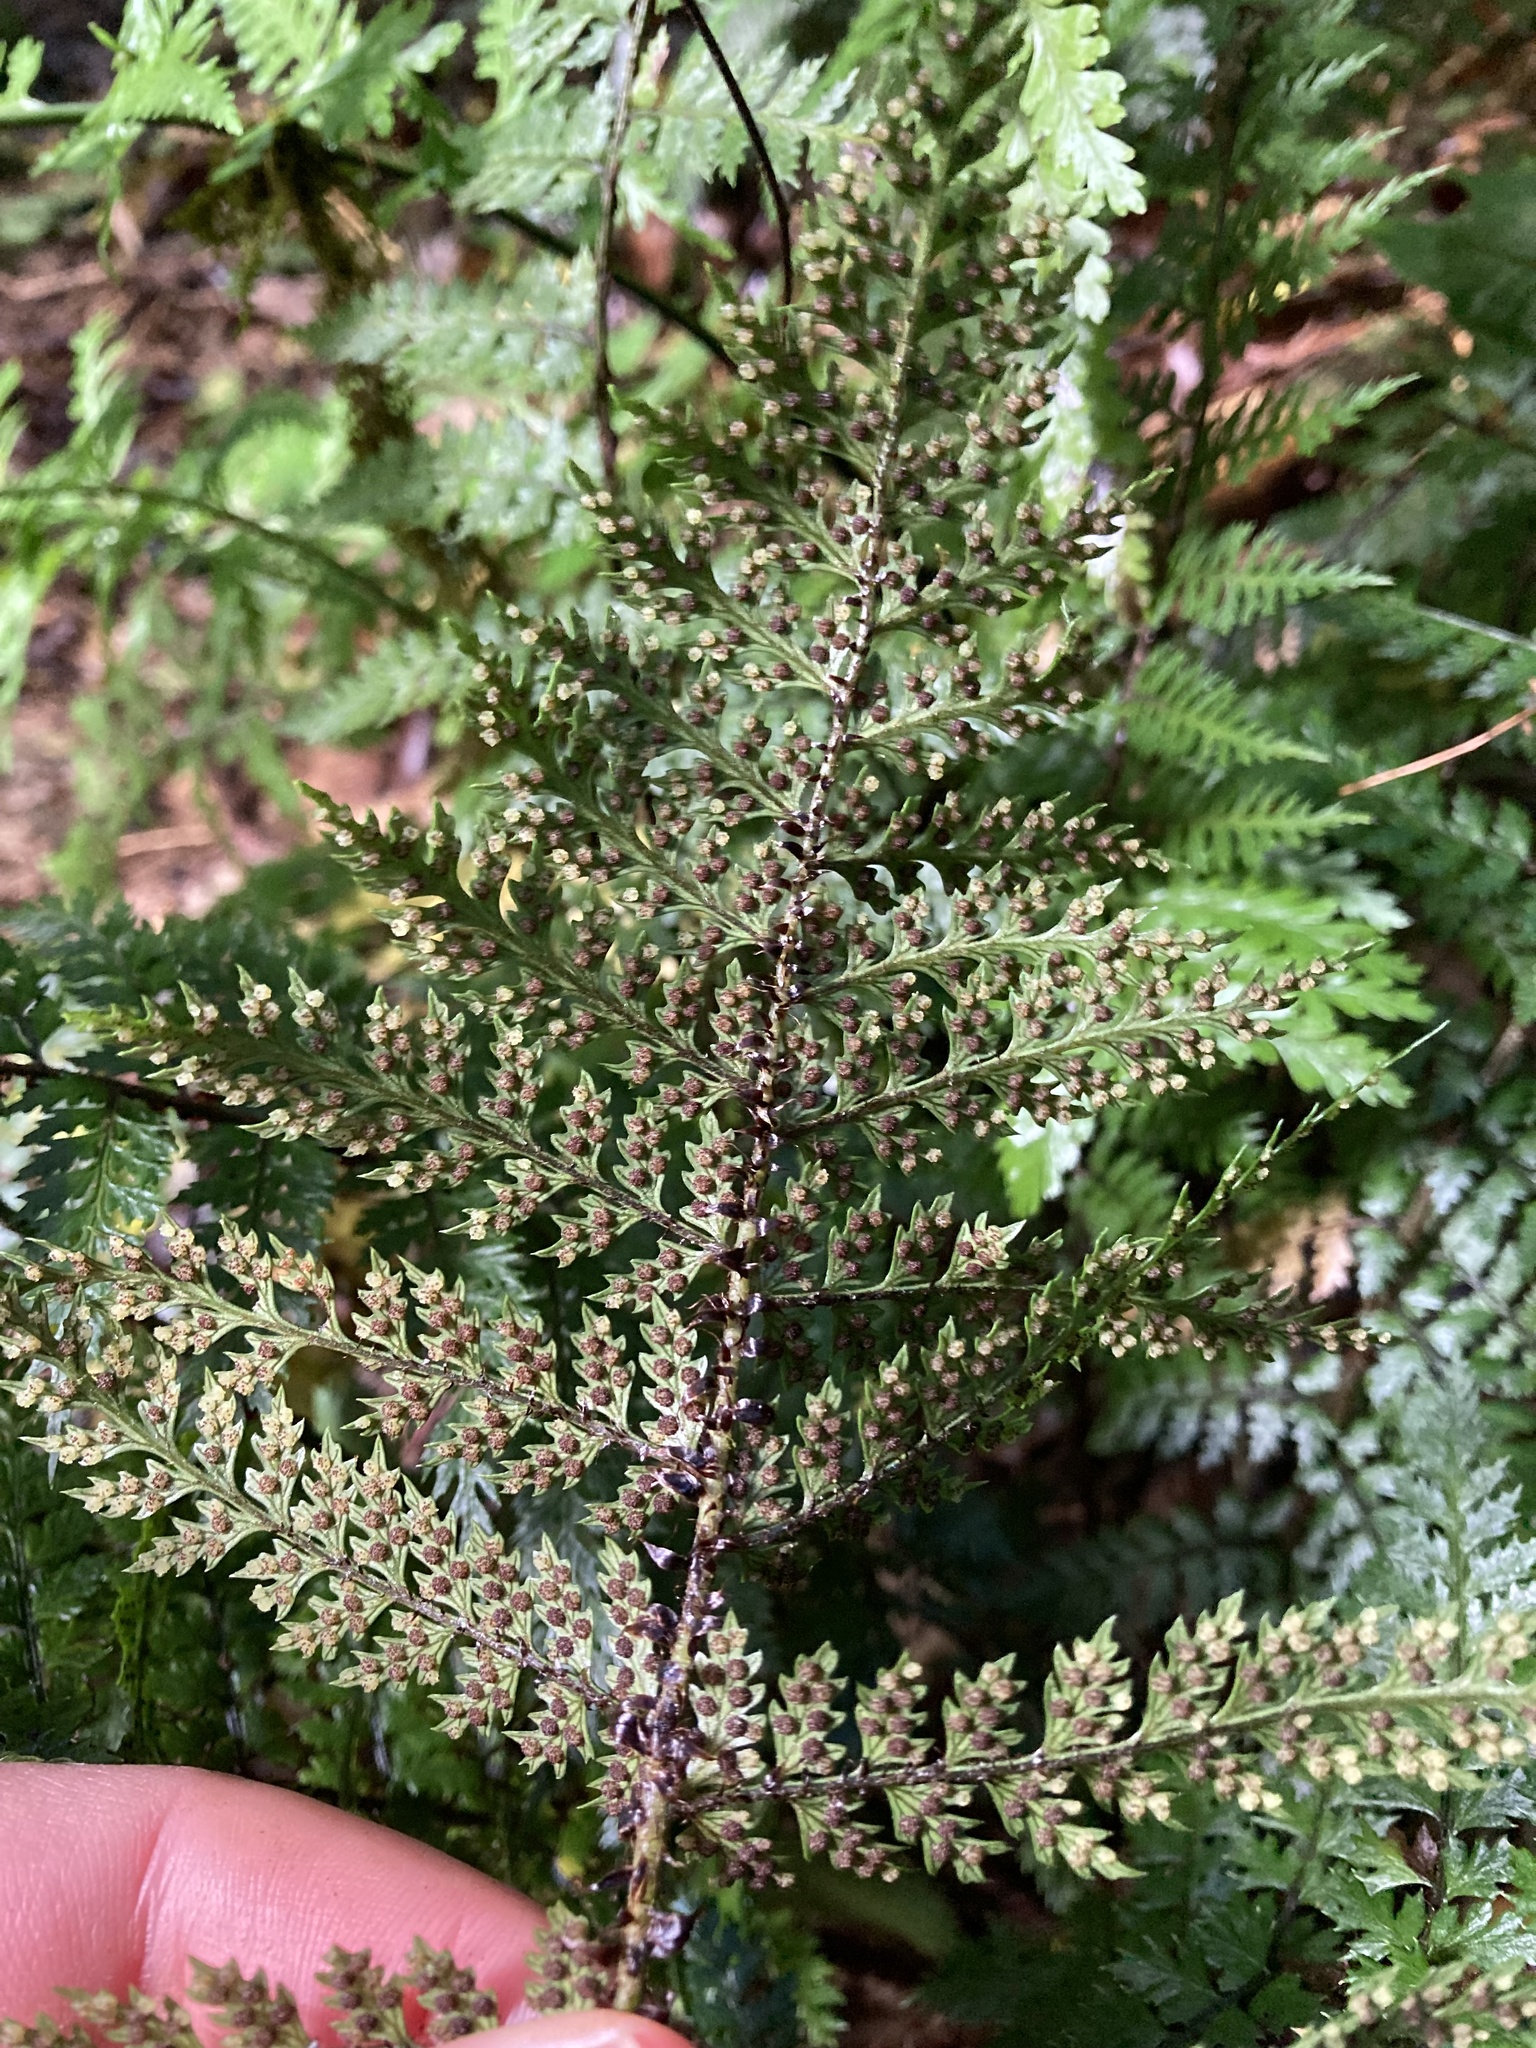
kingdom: Plantae
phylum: Tracheophyta
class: Polypodiopsida
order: Polypodiales
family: Dryopteridaceae
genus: Polystichum
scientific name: Polystichum silvaticum
